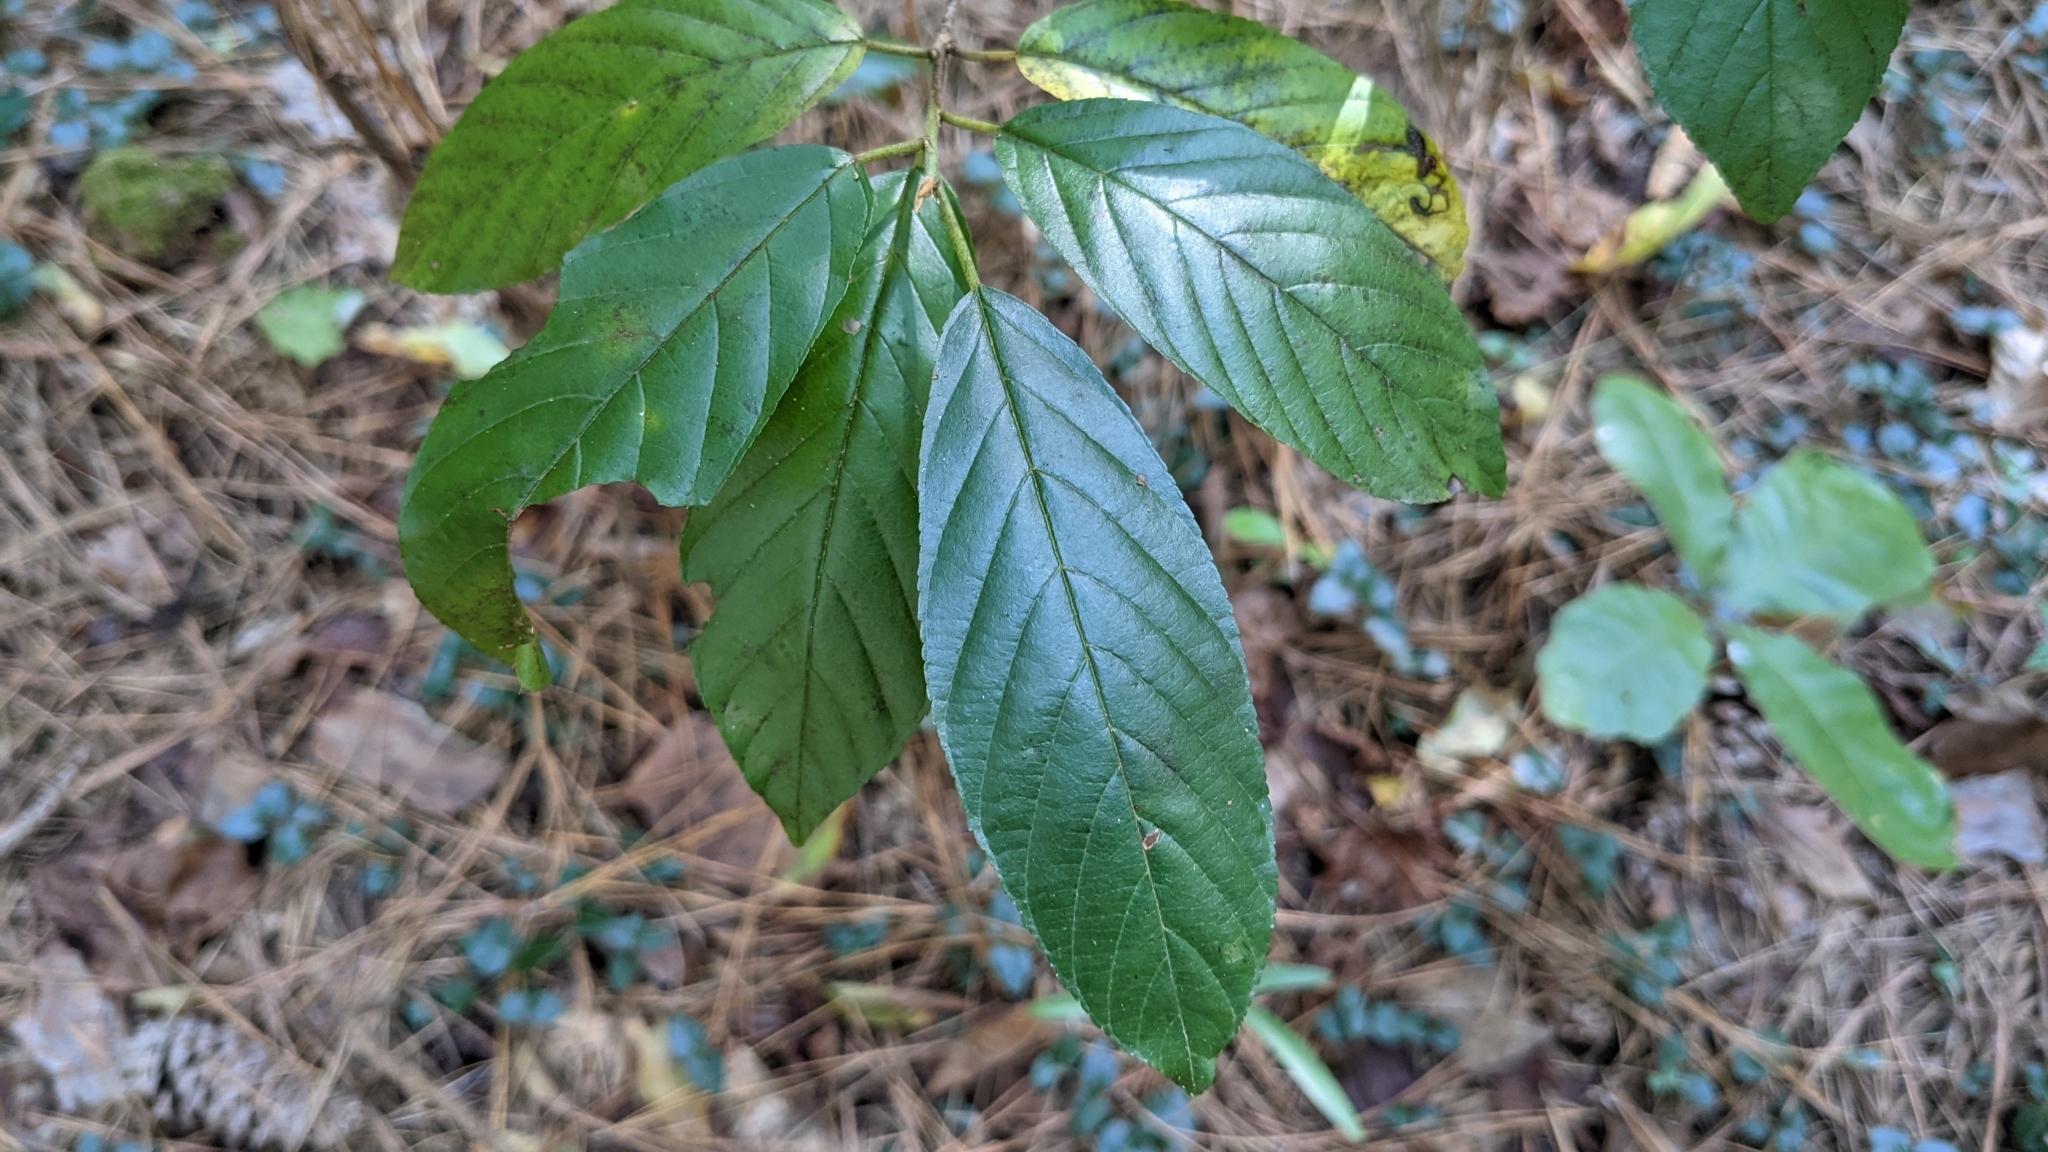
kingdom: Plantae
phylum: Tracheophyta
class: Magnoliopsida
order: Rosales
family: Rhamnaceae
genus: Frangula
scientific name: Frangula caroliniana
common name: Carolina buckthorn
